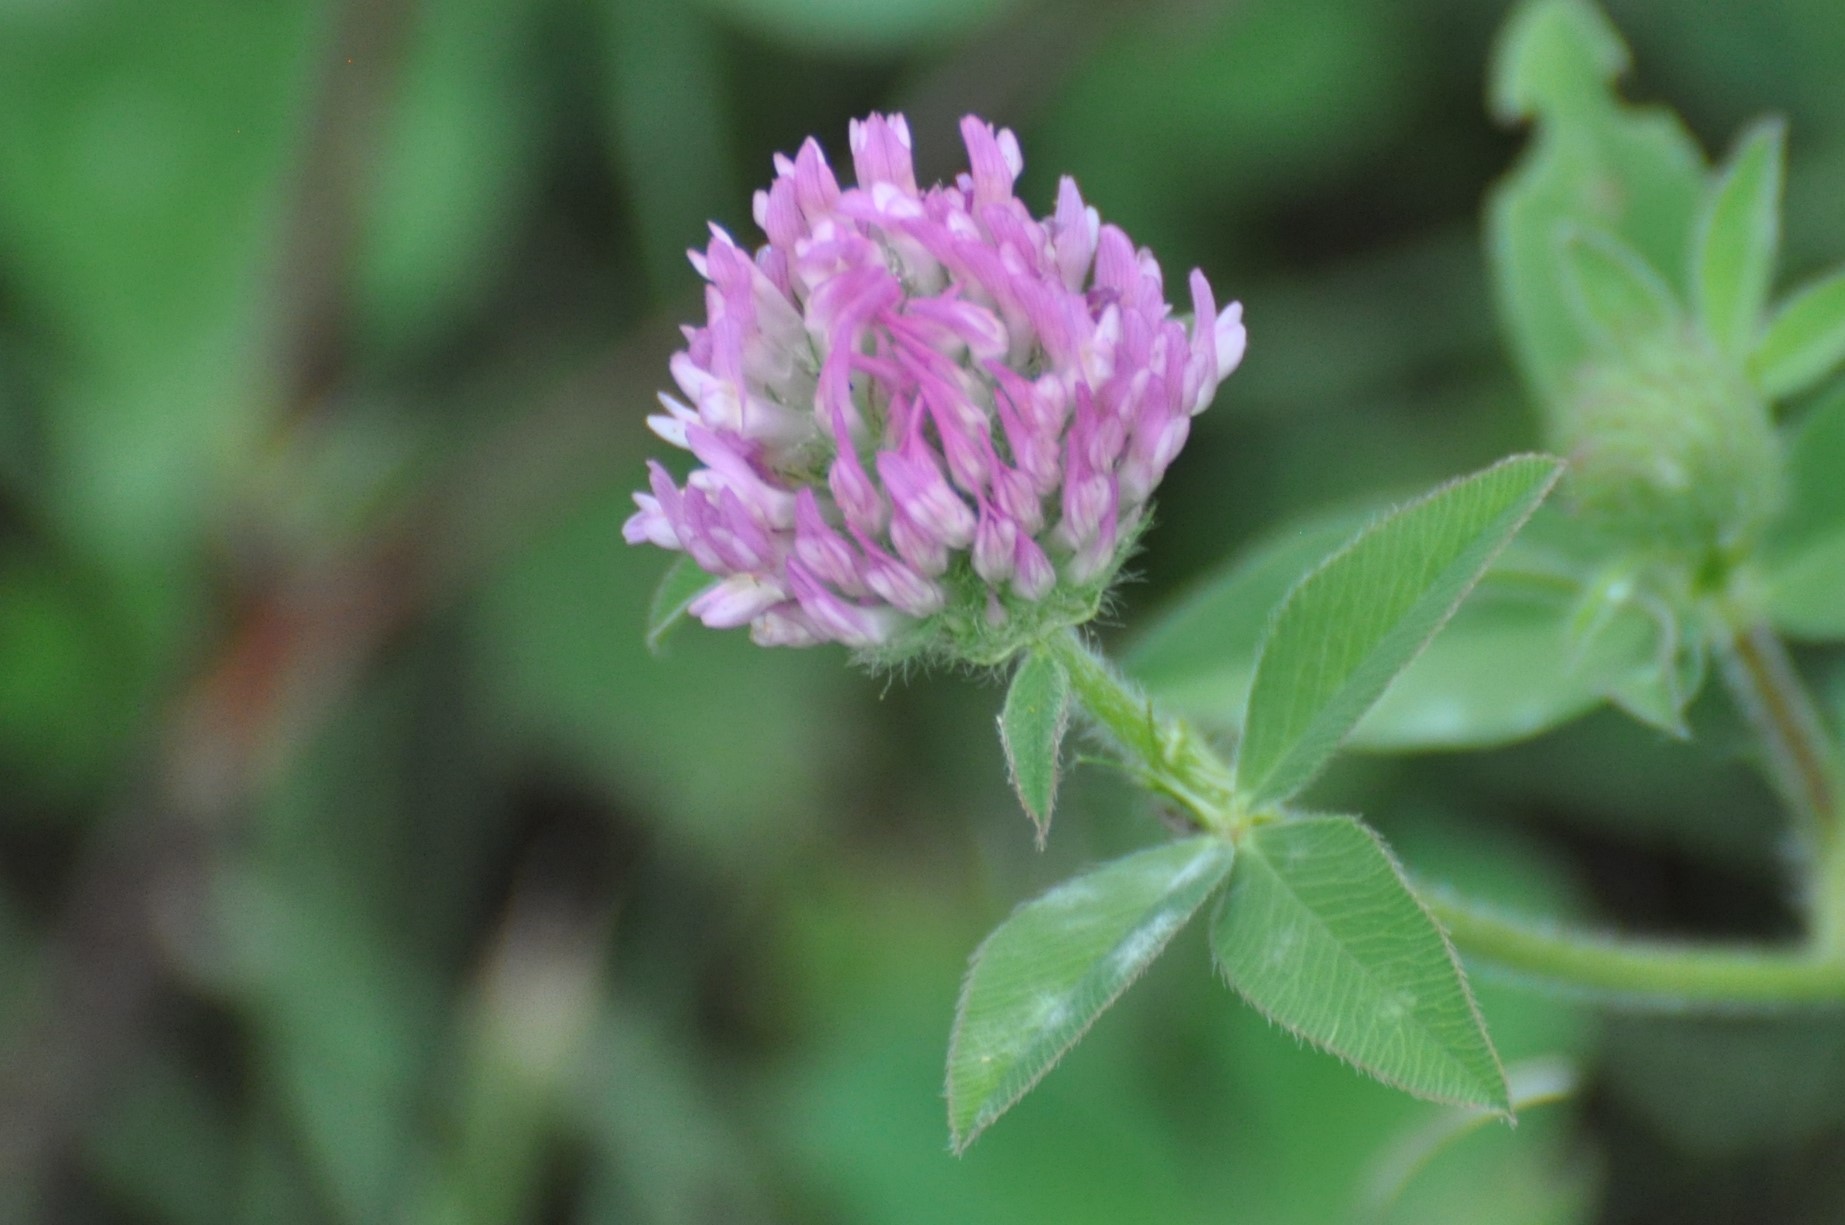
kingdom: Plantae
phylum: Tracheophyta
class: Magnoliopsida
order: Fabales
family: Fabaceae
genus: Trifolium
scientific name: Trifolium pratense
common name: Red clover
